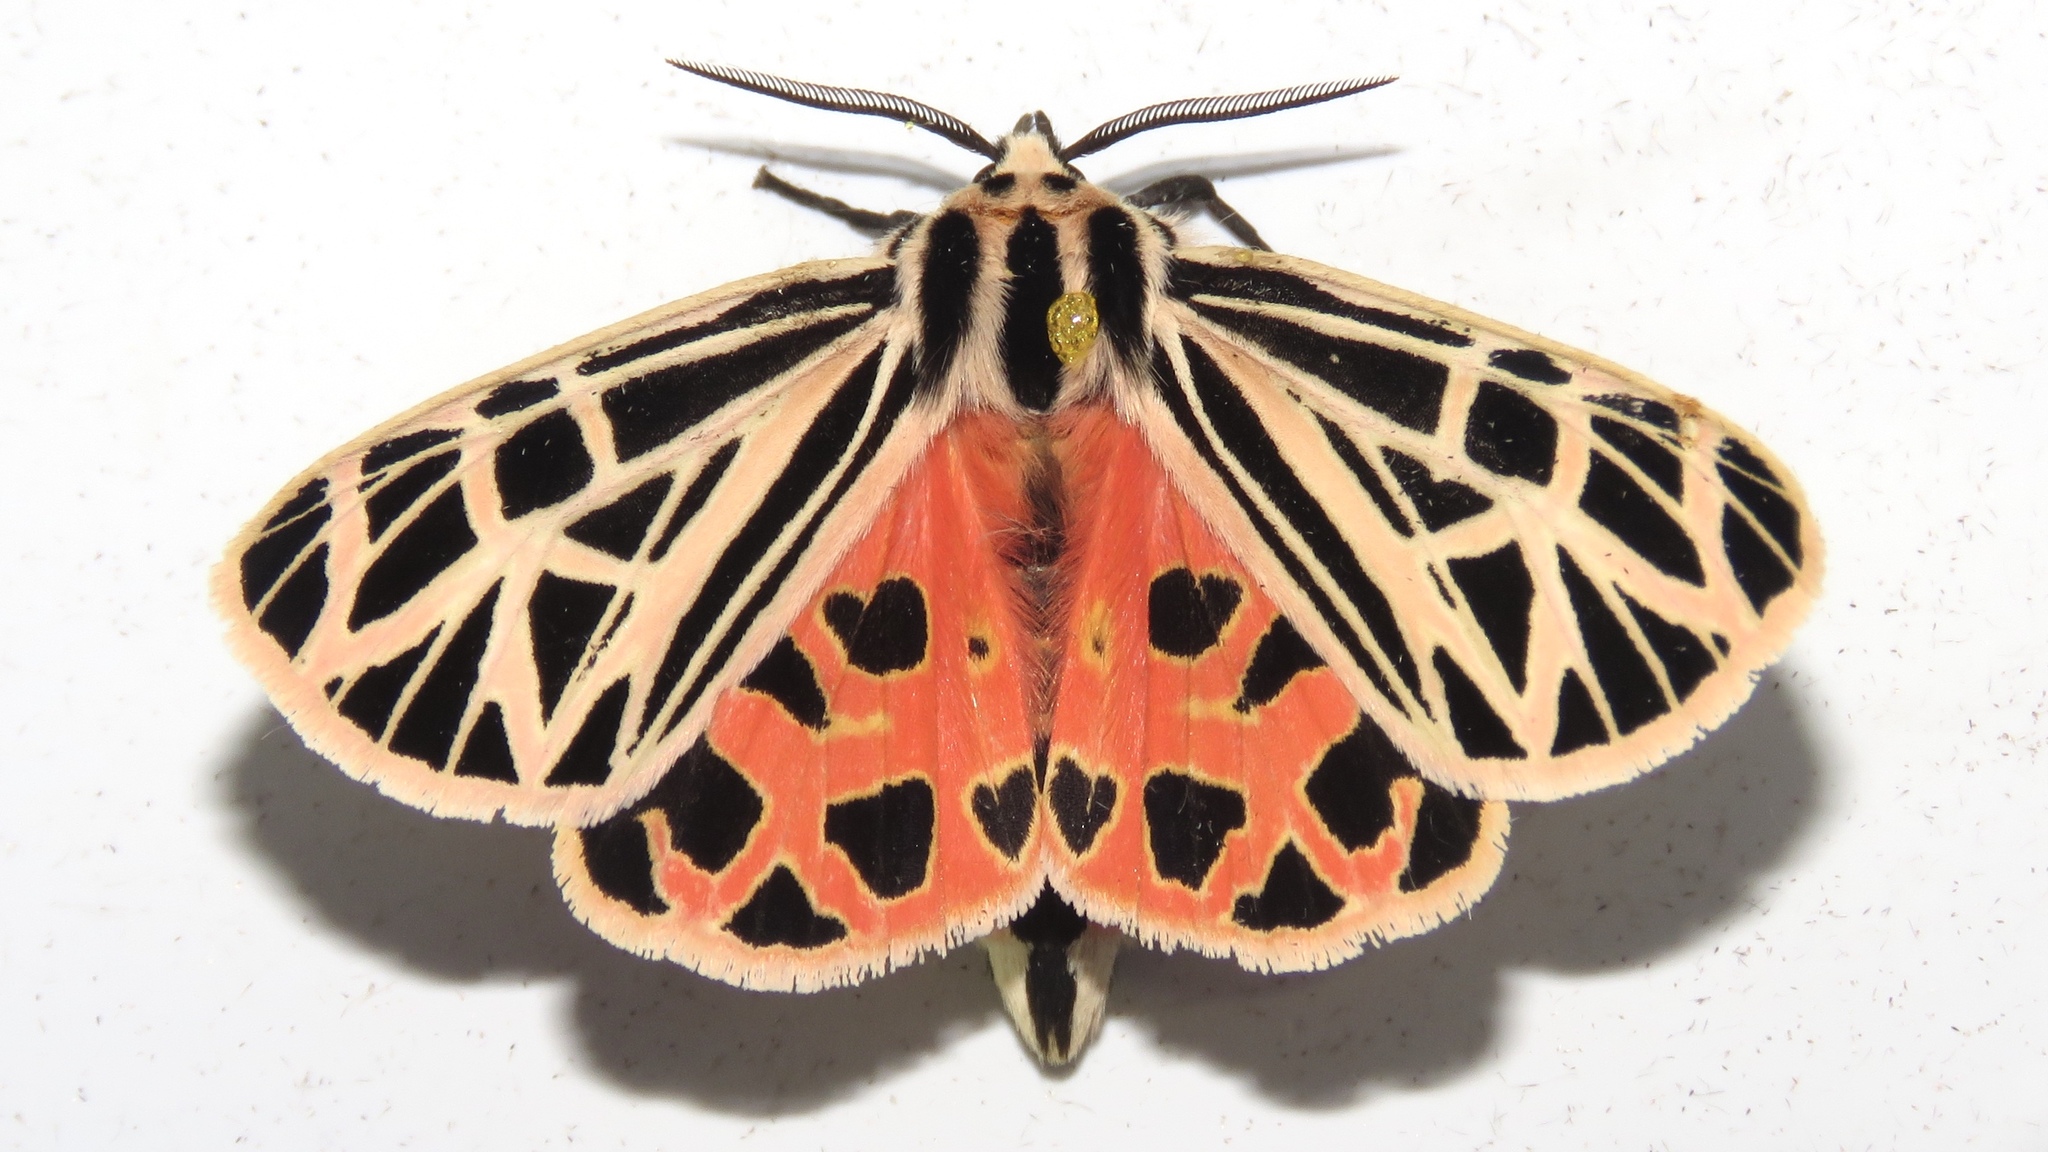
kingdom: Animalia
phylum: Arthropoda
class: Insecta
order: Lepidoptera
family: Erebidae
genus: Grammia
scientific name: Grammia virgo
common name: Virgin tiger moth
